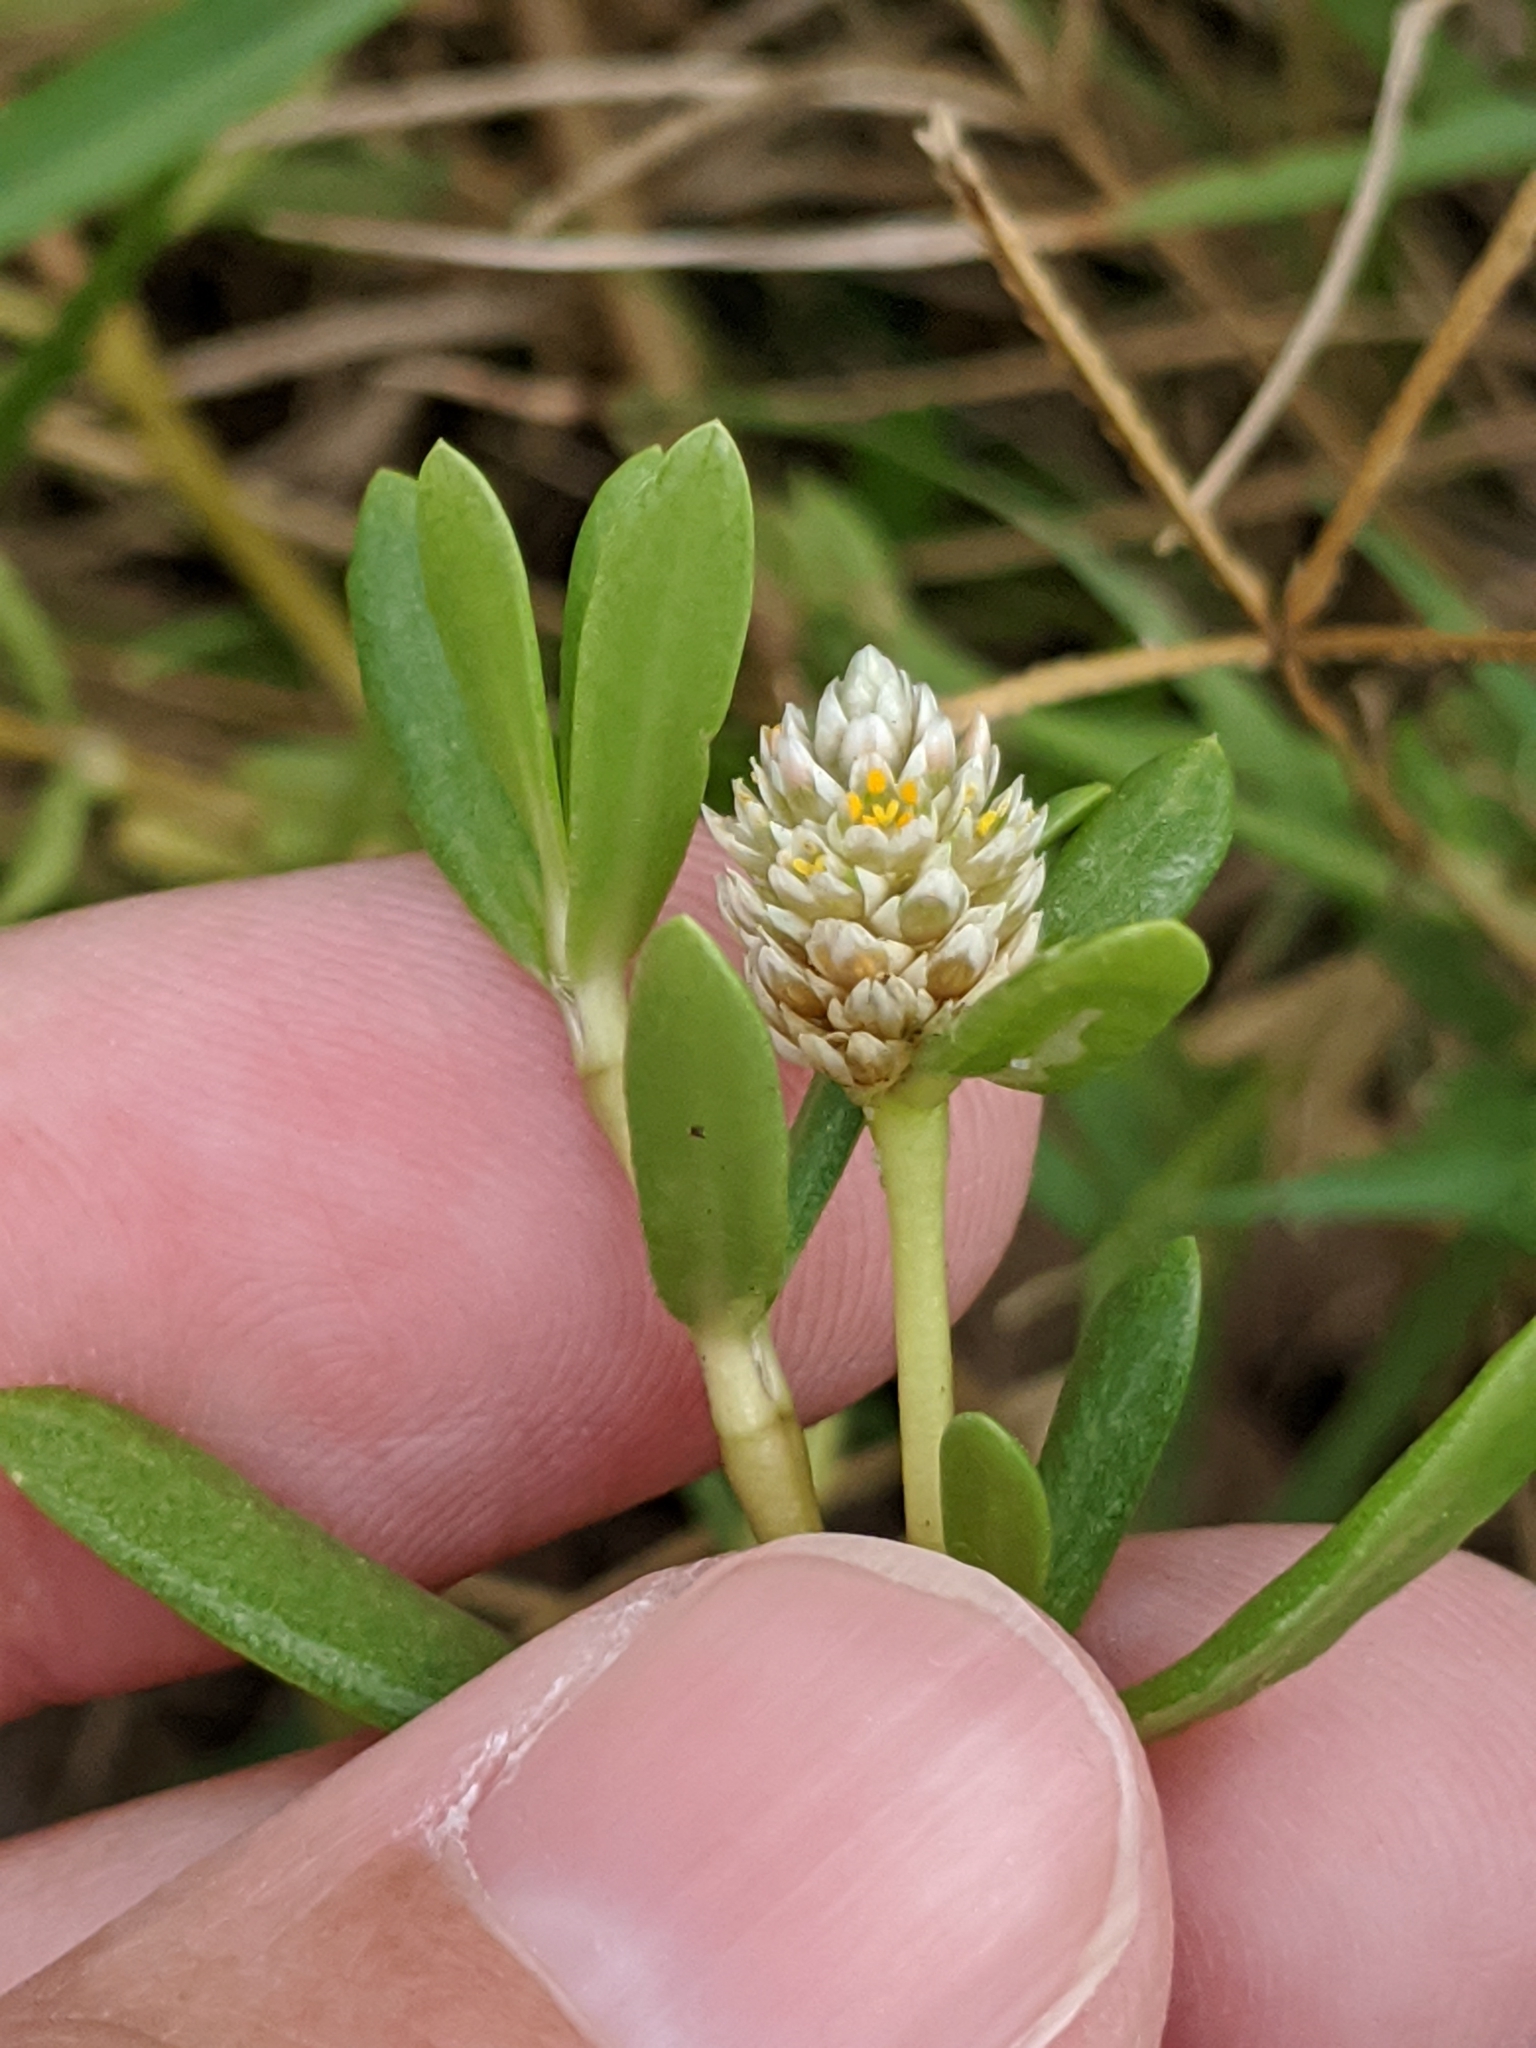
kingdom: Plantae
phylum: Tracheophyta
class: Magnoliopsida
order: Caryophyllales
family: Amaranthaceae
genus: Gomphrena
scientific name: Gomphrena vermicularis
